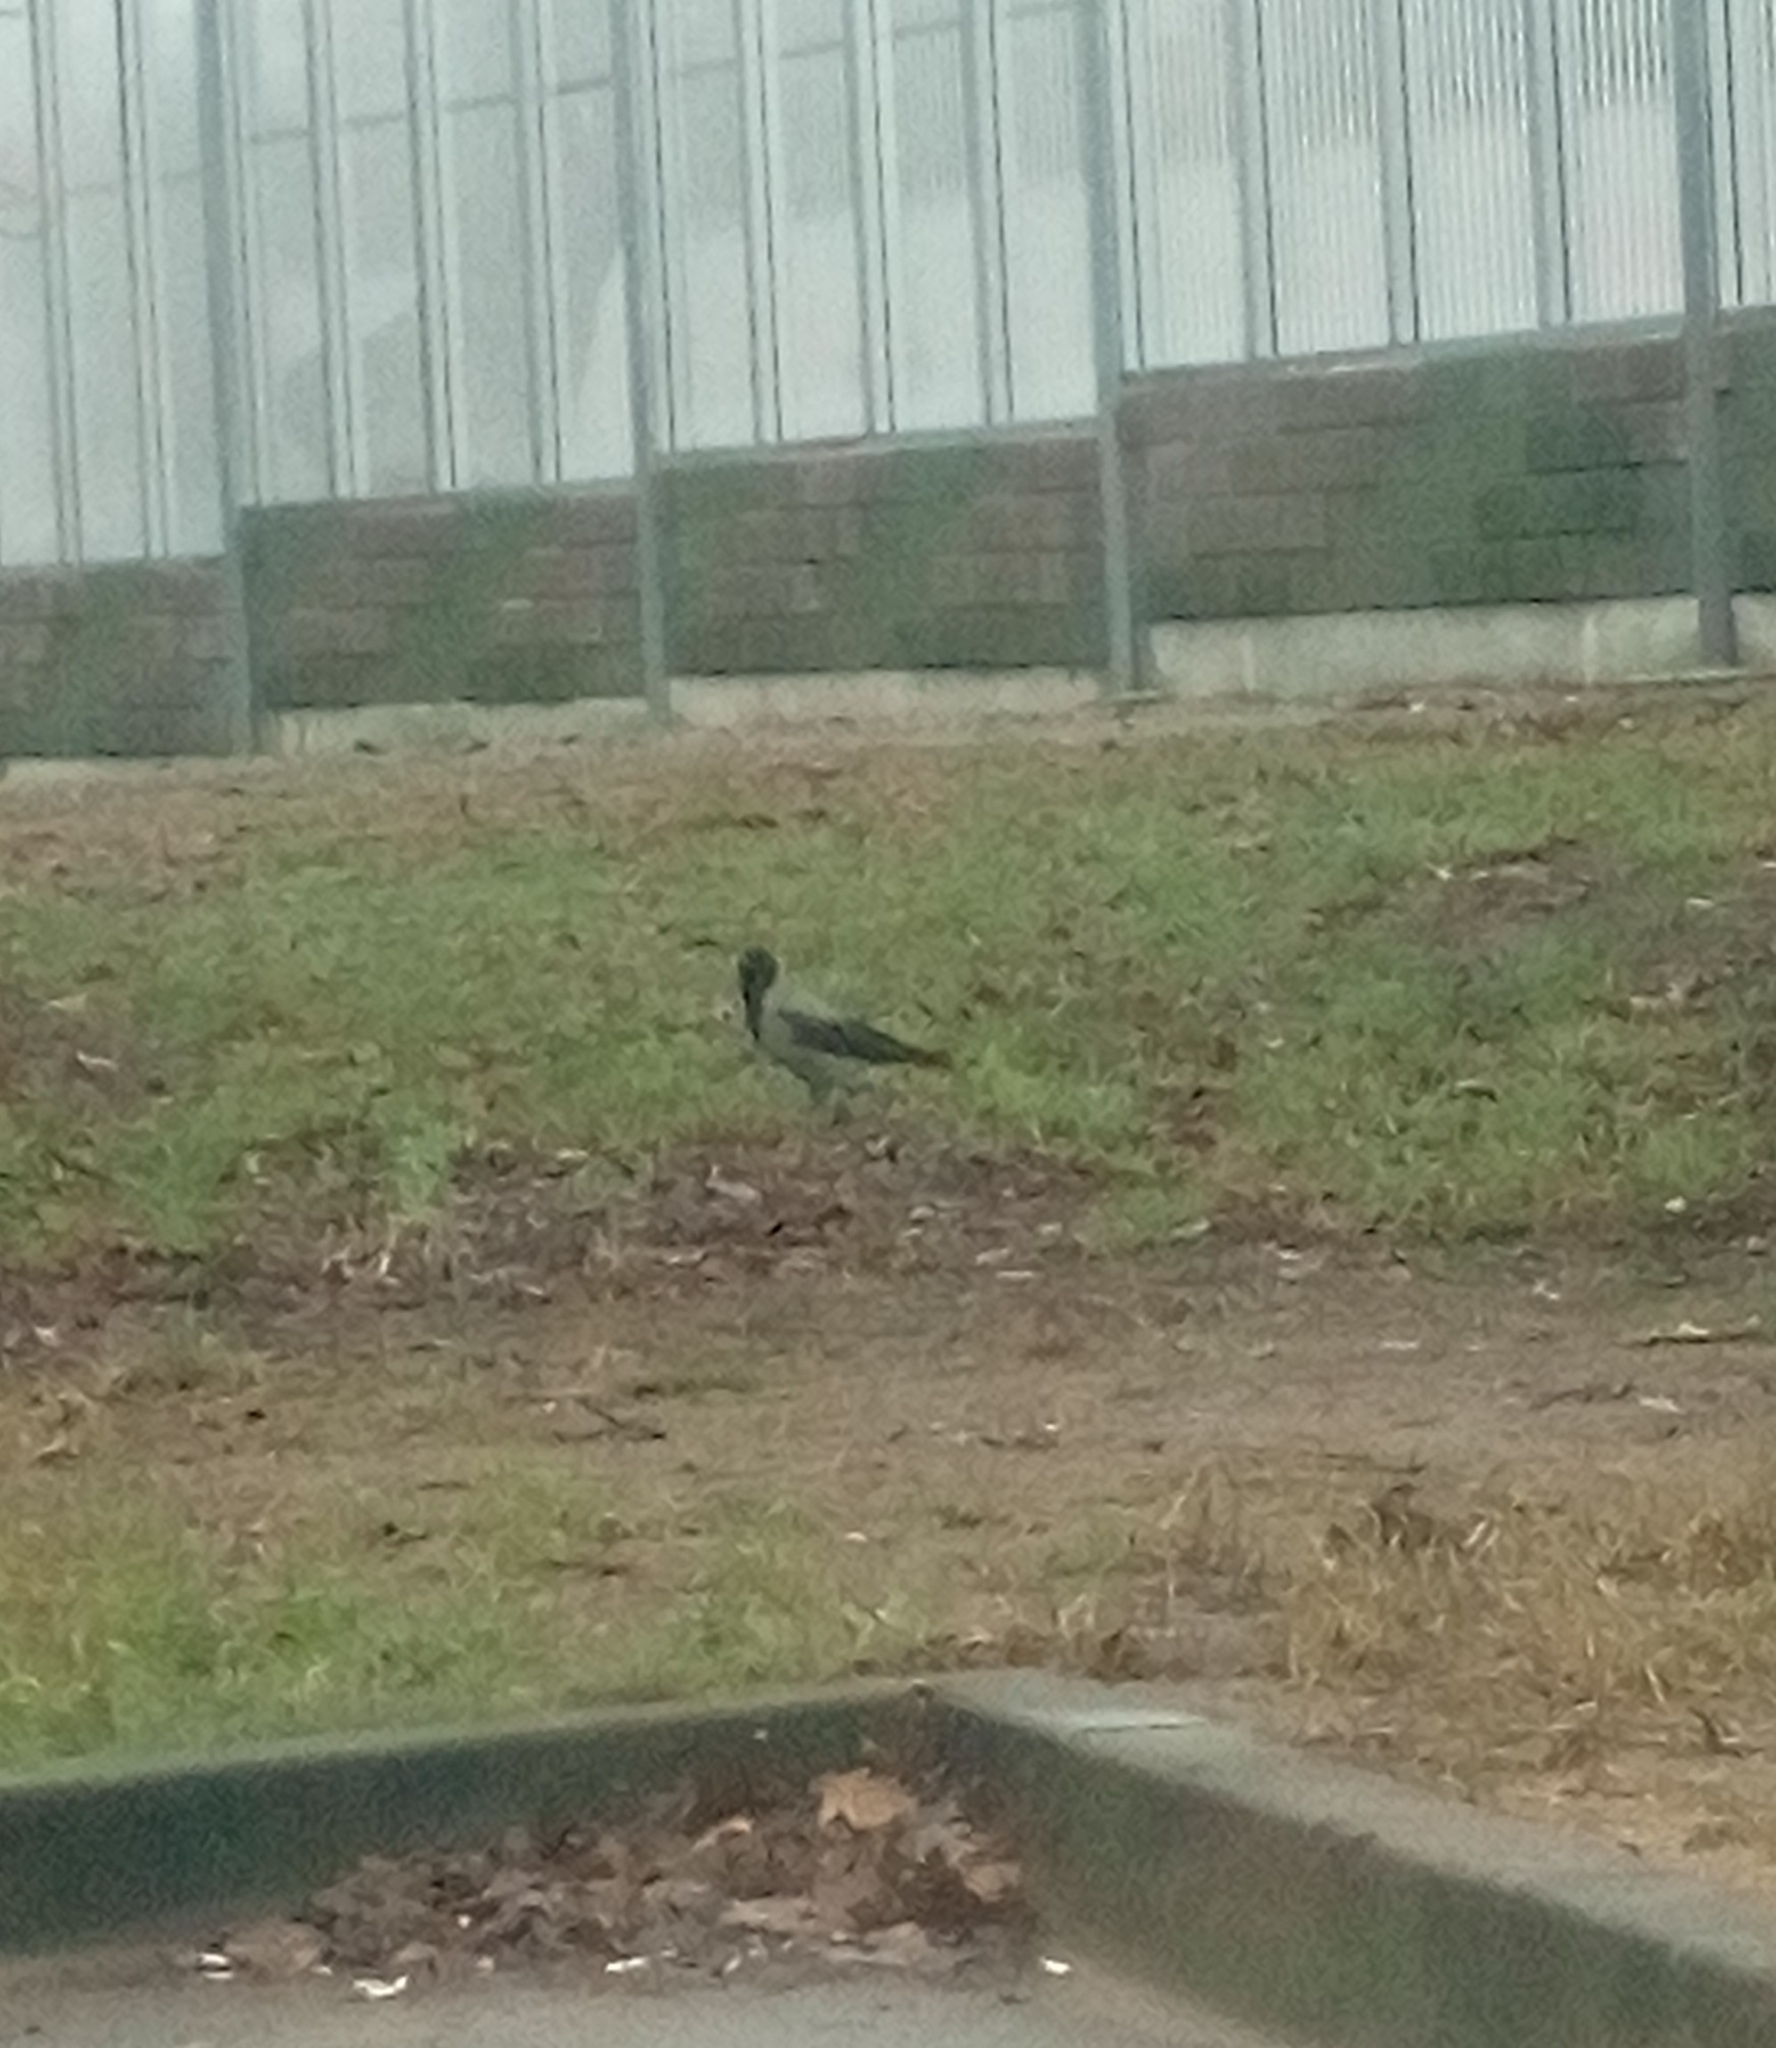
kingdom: Animalia
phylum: Chordata
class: Aves
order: Passeriformes
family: Corvidae
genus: Corvus
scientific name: Corvus cornix
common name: Hooded crow
